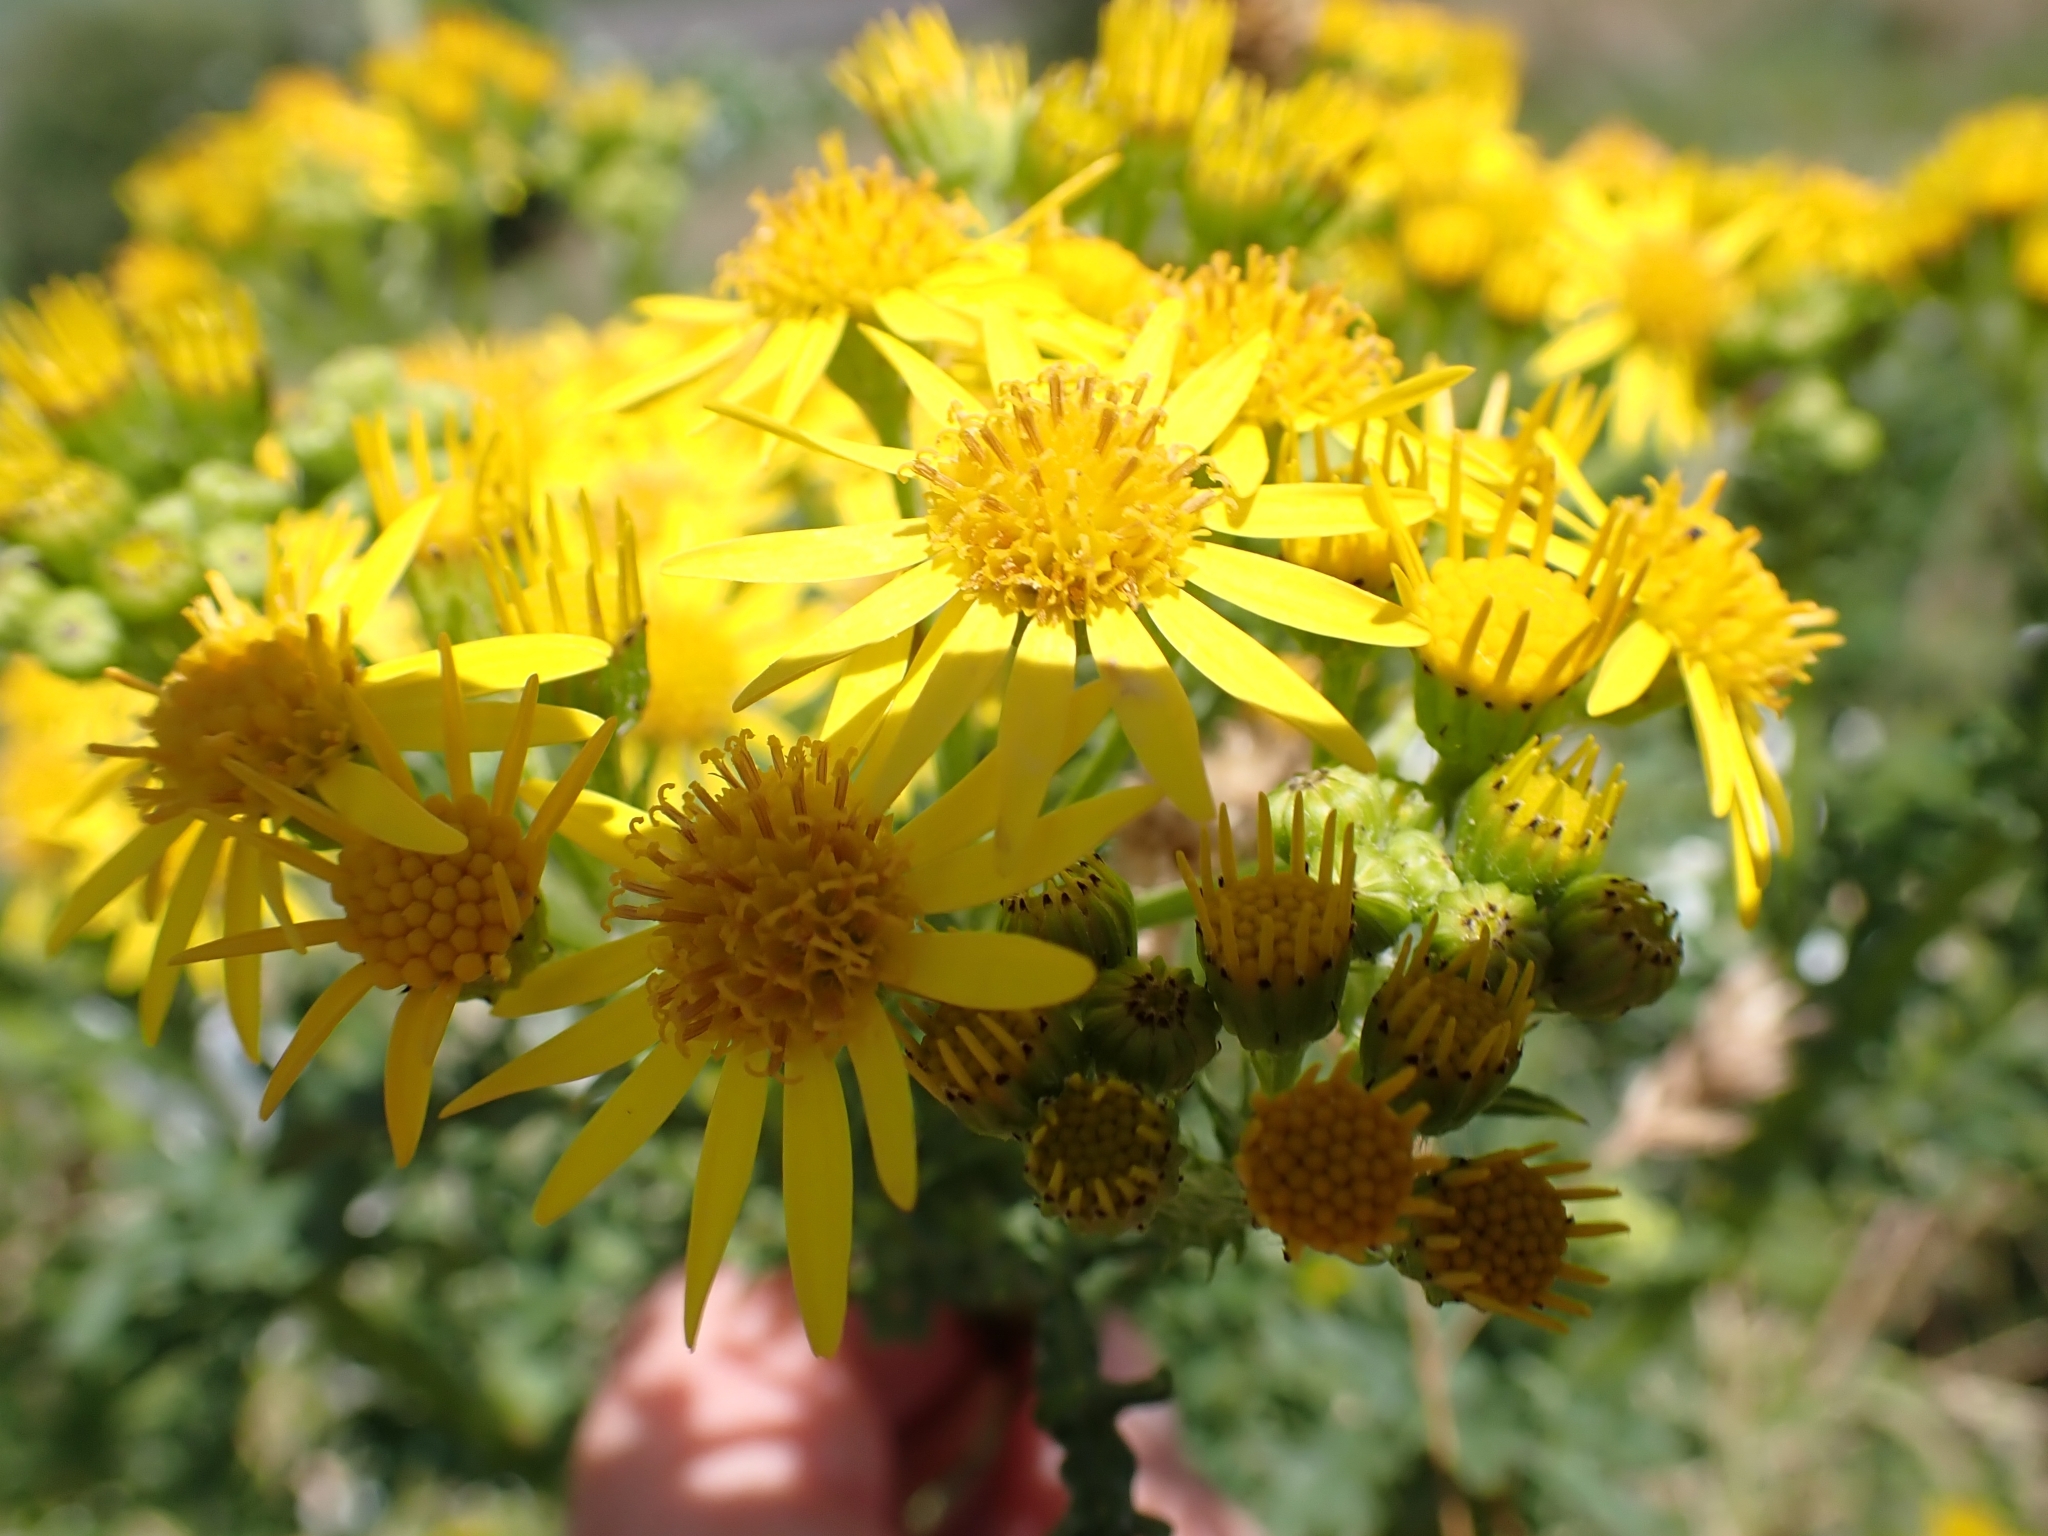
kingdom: Plantae
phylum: Tracheophyta
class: Magnoliopsida
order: Asterales
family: Asteraceae
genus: Jacobaea
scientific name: Jacobaea vulgaris
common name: Stinking willie
